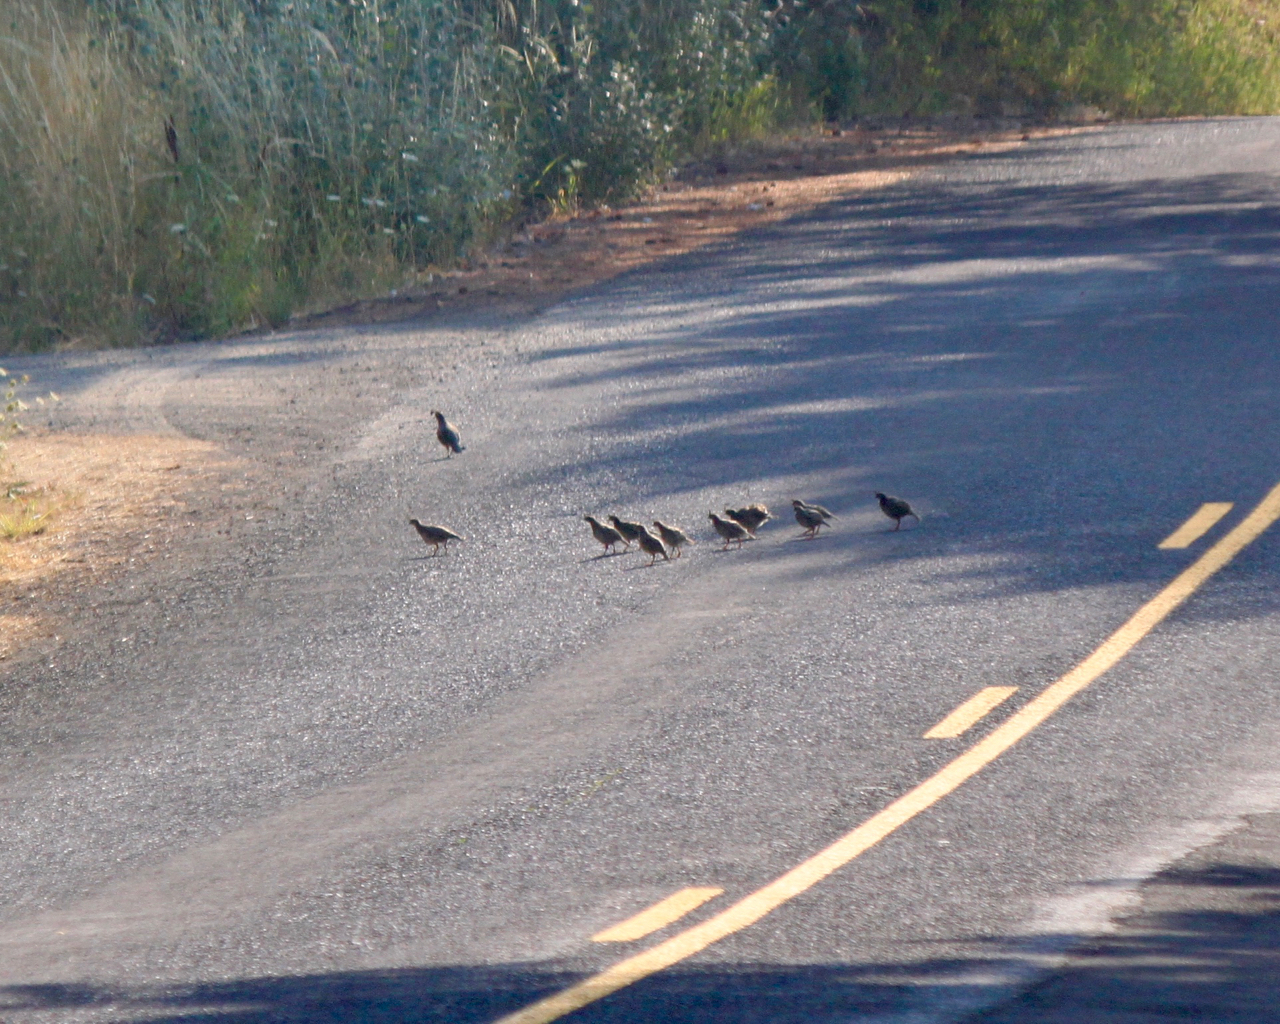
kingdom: Animalia
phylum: Chordata
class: Aves
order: Galliformes
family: Odontophoridae
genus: Callipepla
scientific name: Callipepla californica
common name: California quail
